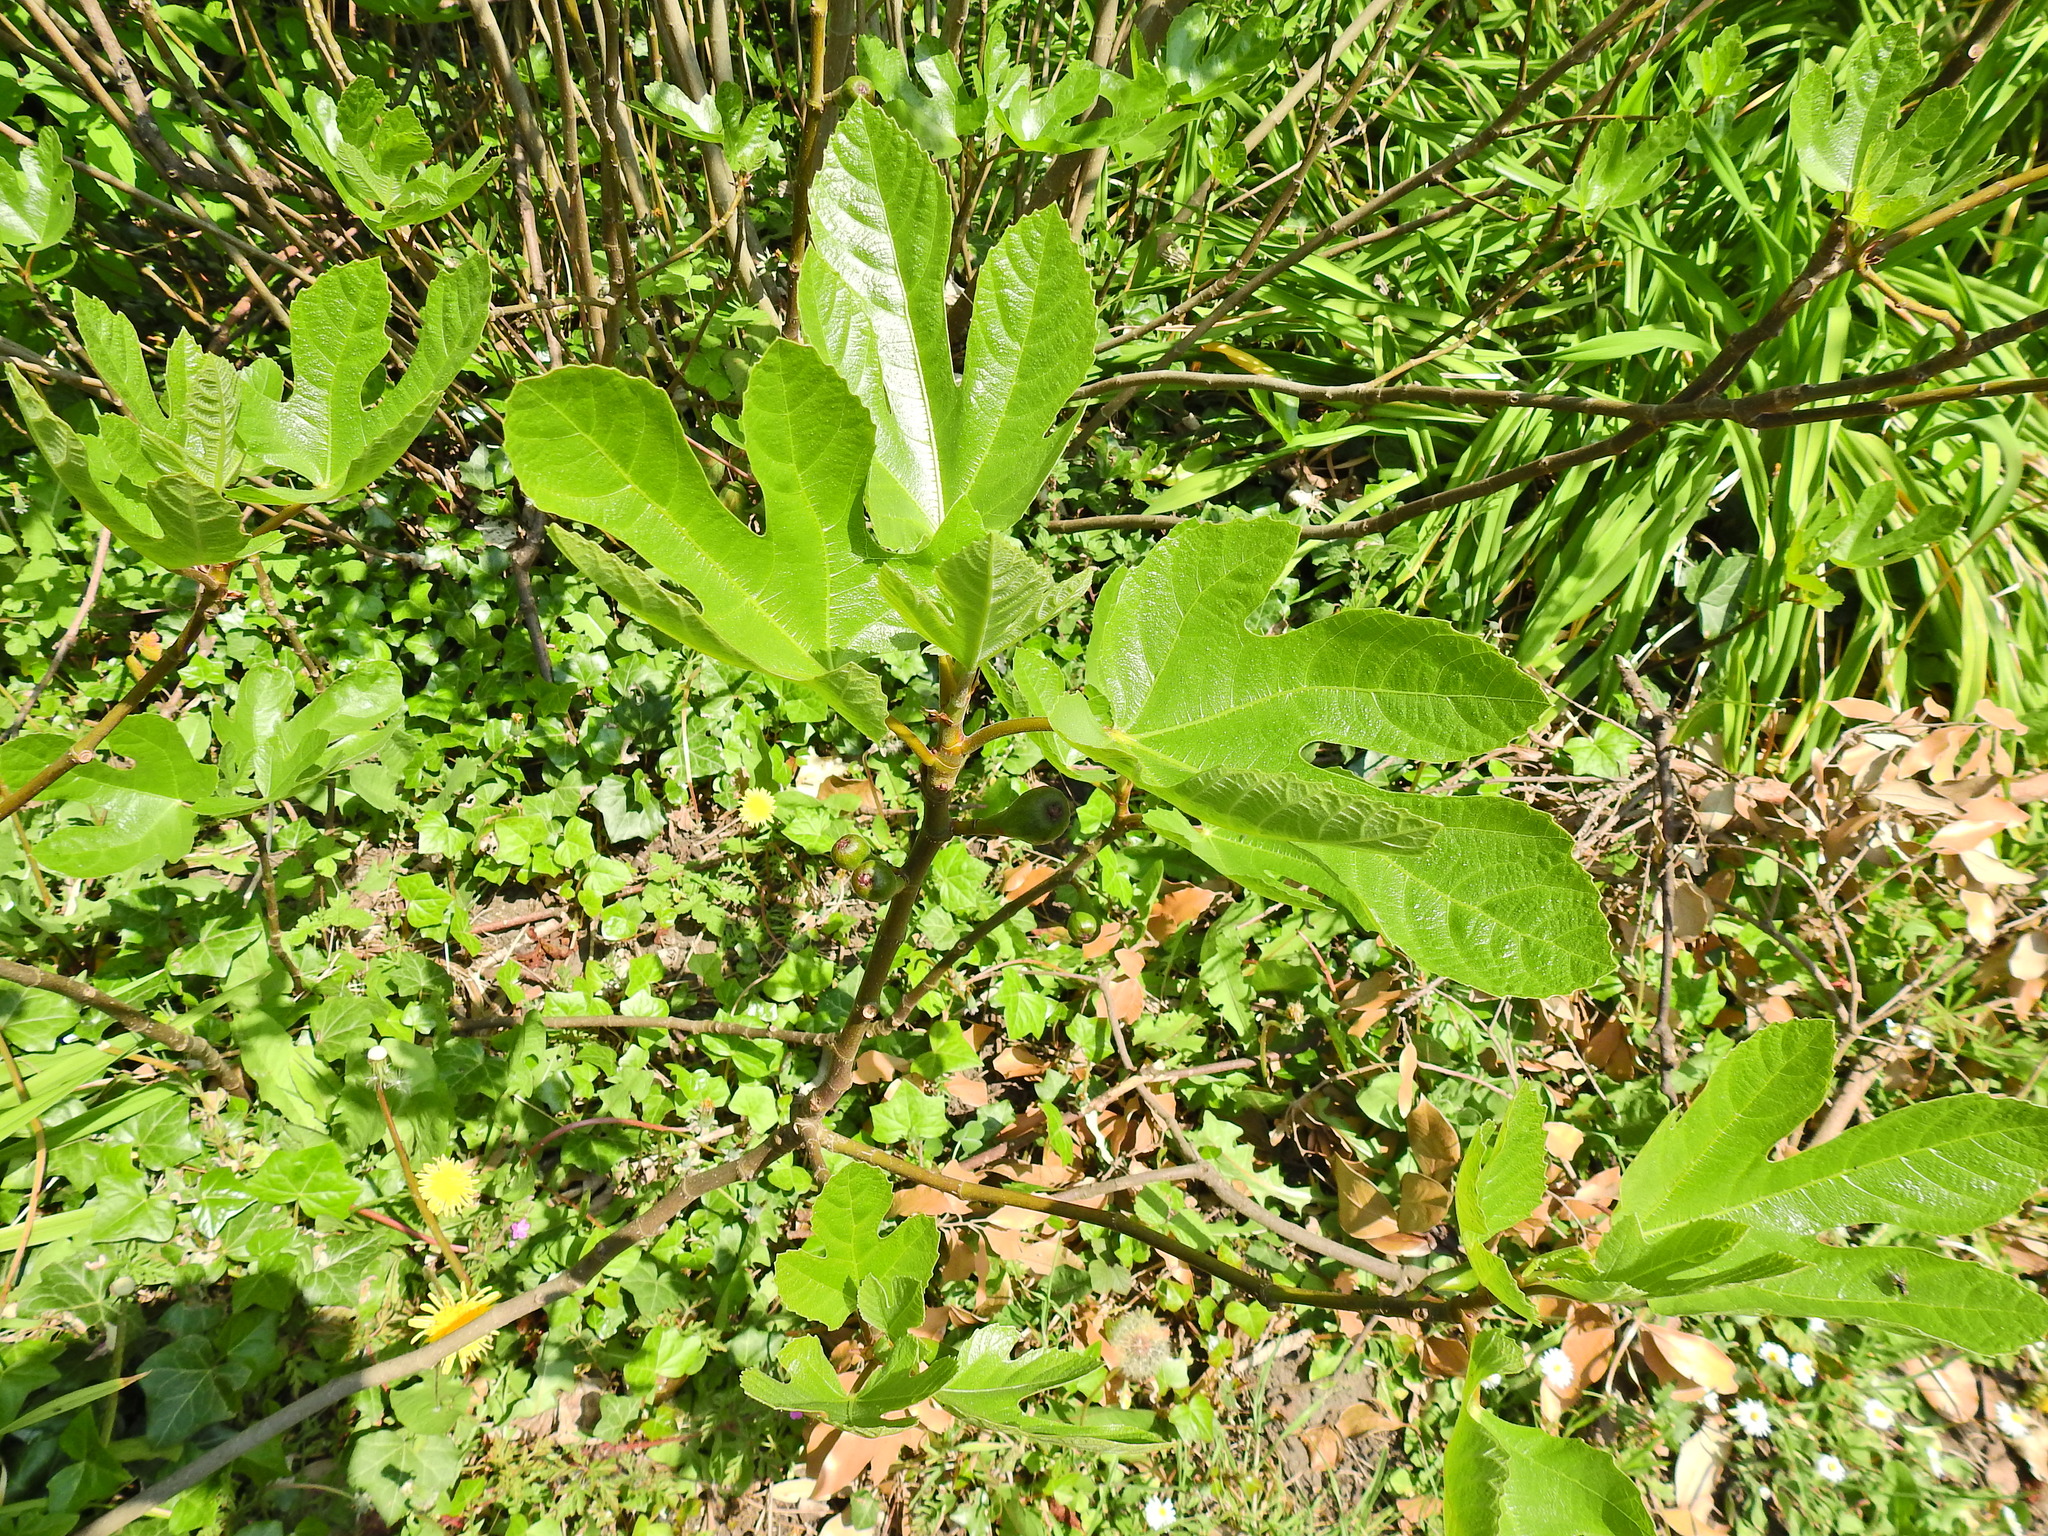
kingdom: Plantae
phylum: Tracheophyta
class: Magnoliopsida
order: Rosales
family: Moraceae
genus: Ficus
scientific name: Ficus carica
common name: Fig
